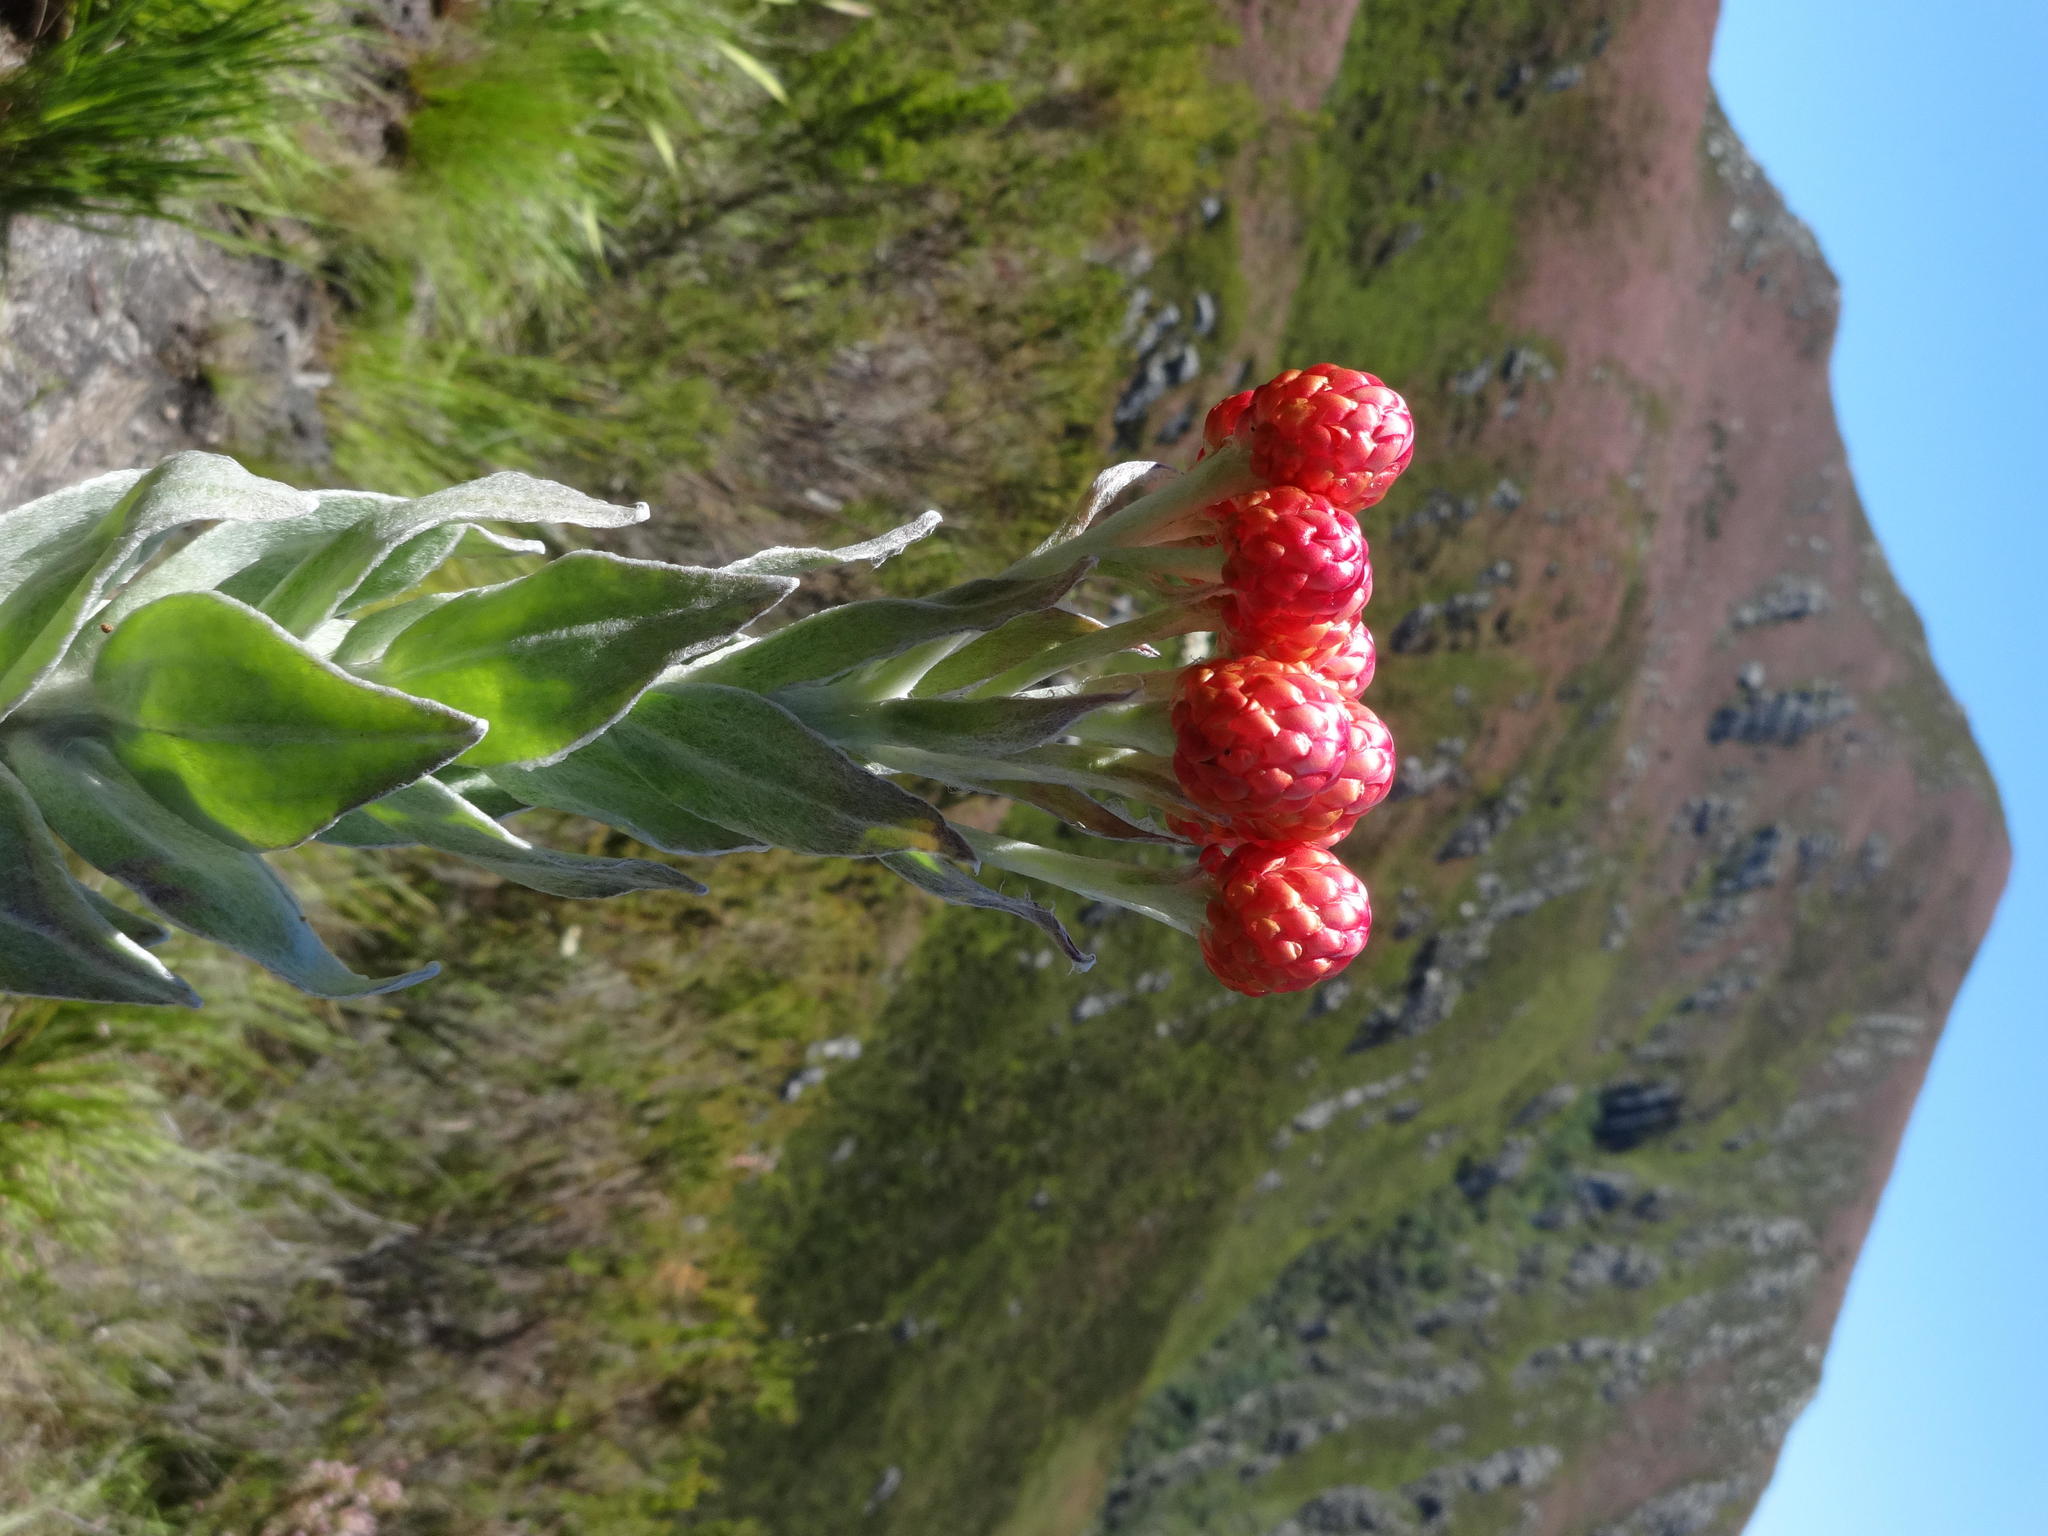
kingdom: Plantae
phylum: Tracheophyta
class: Magnoliopsida
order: Asterales
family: Asteraceae
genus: Syncarpha
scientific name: Syncarpha eximia
